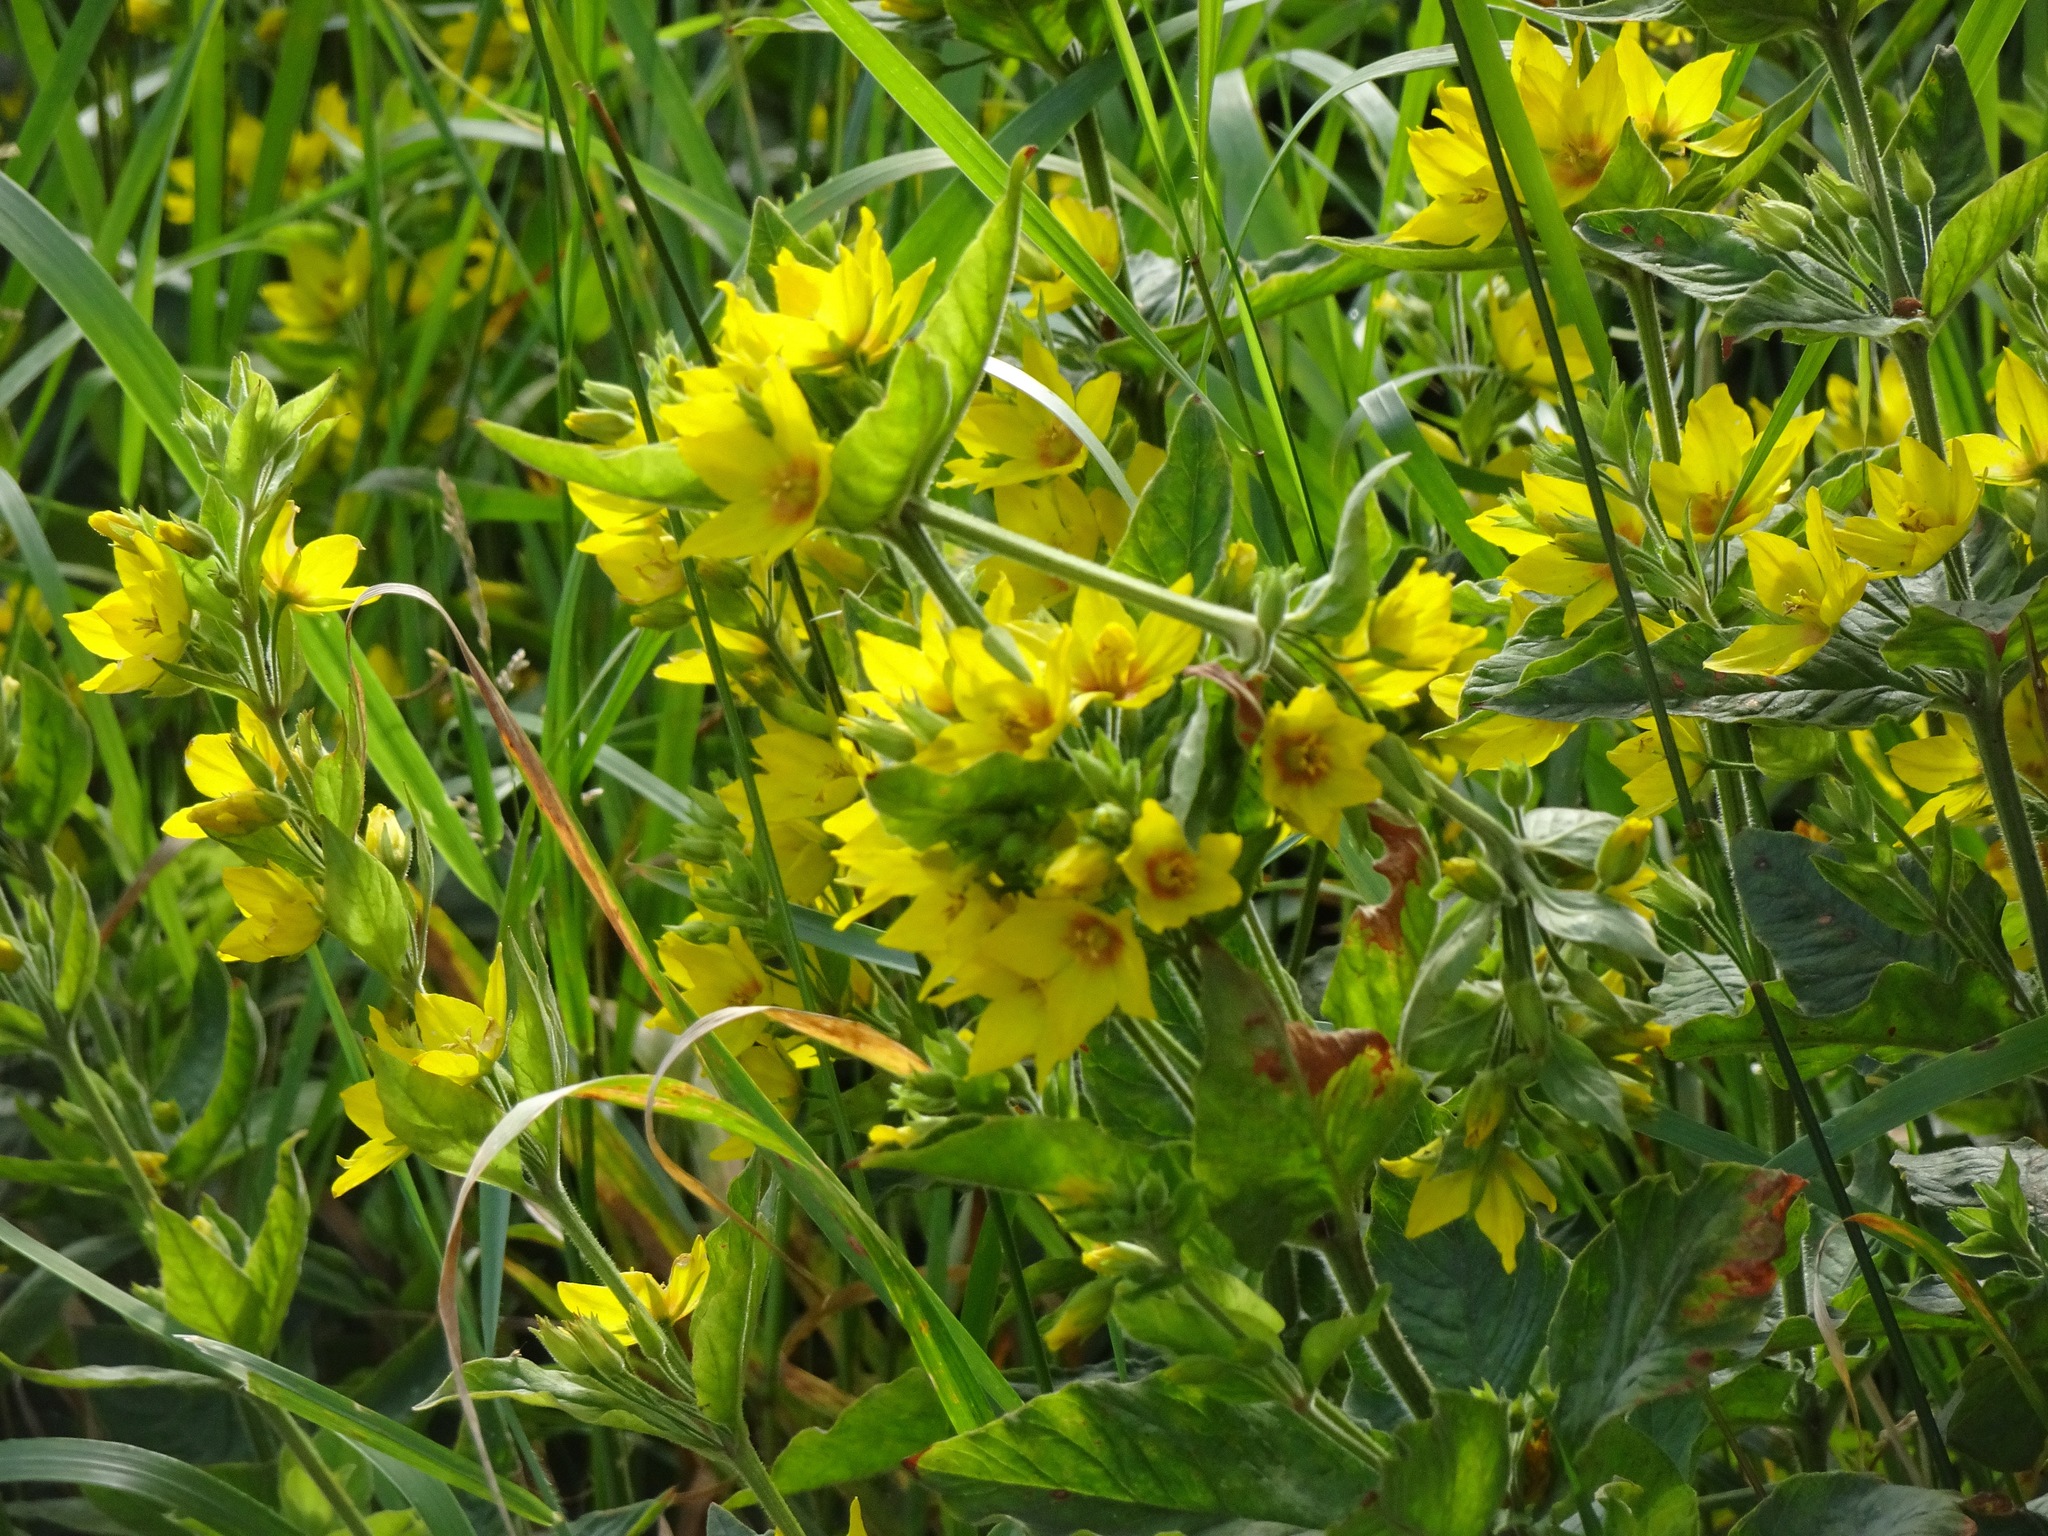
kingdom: Plantae
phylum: Tracheophyta
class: Magnoliopsida
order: Ericales
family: Primulaceae
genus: Lysimachia
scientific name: Lysimachia punctata
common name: Dotted loosestrife
